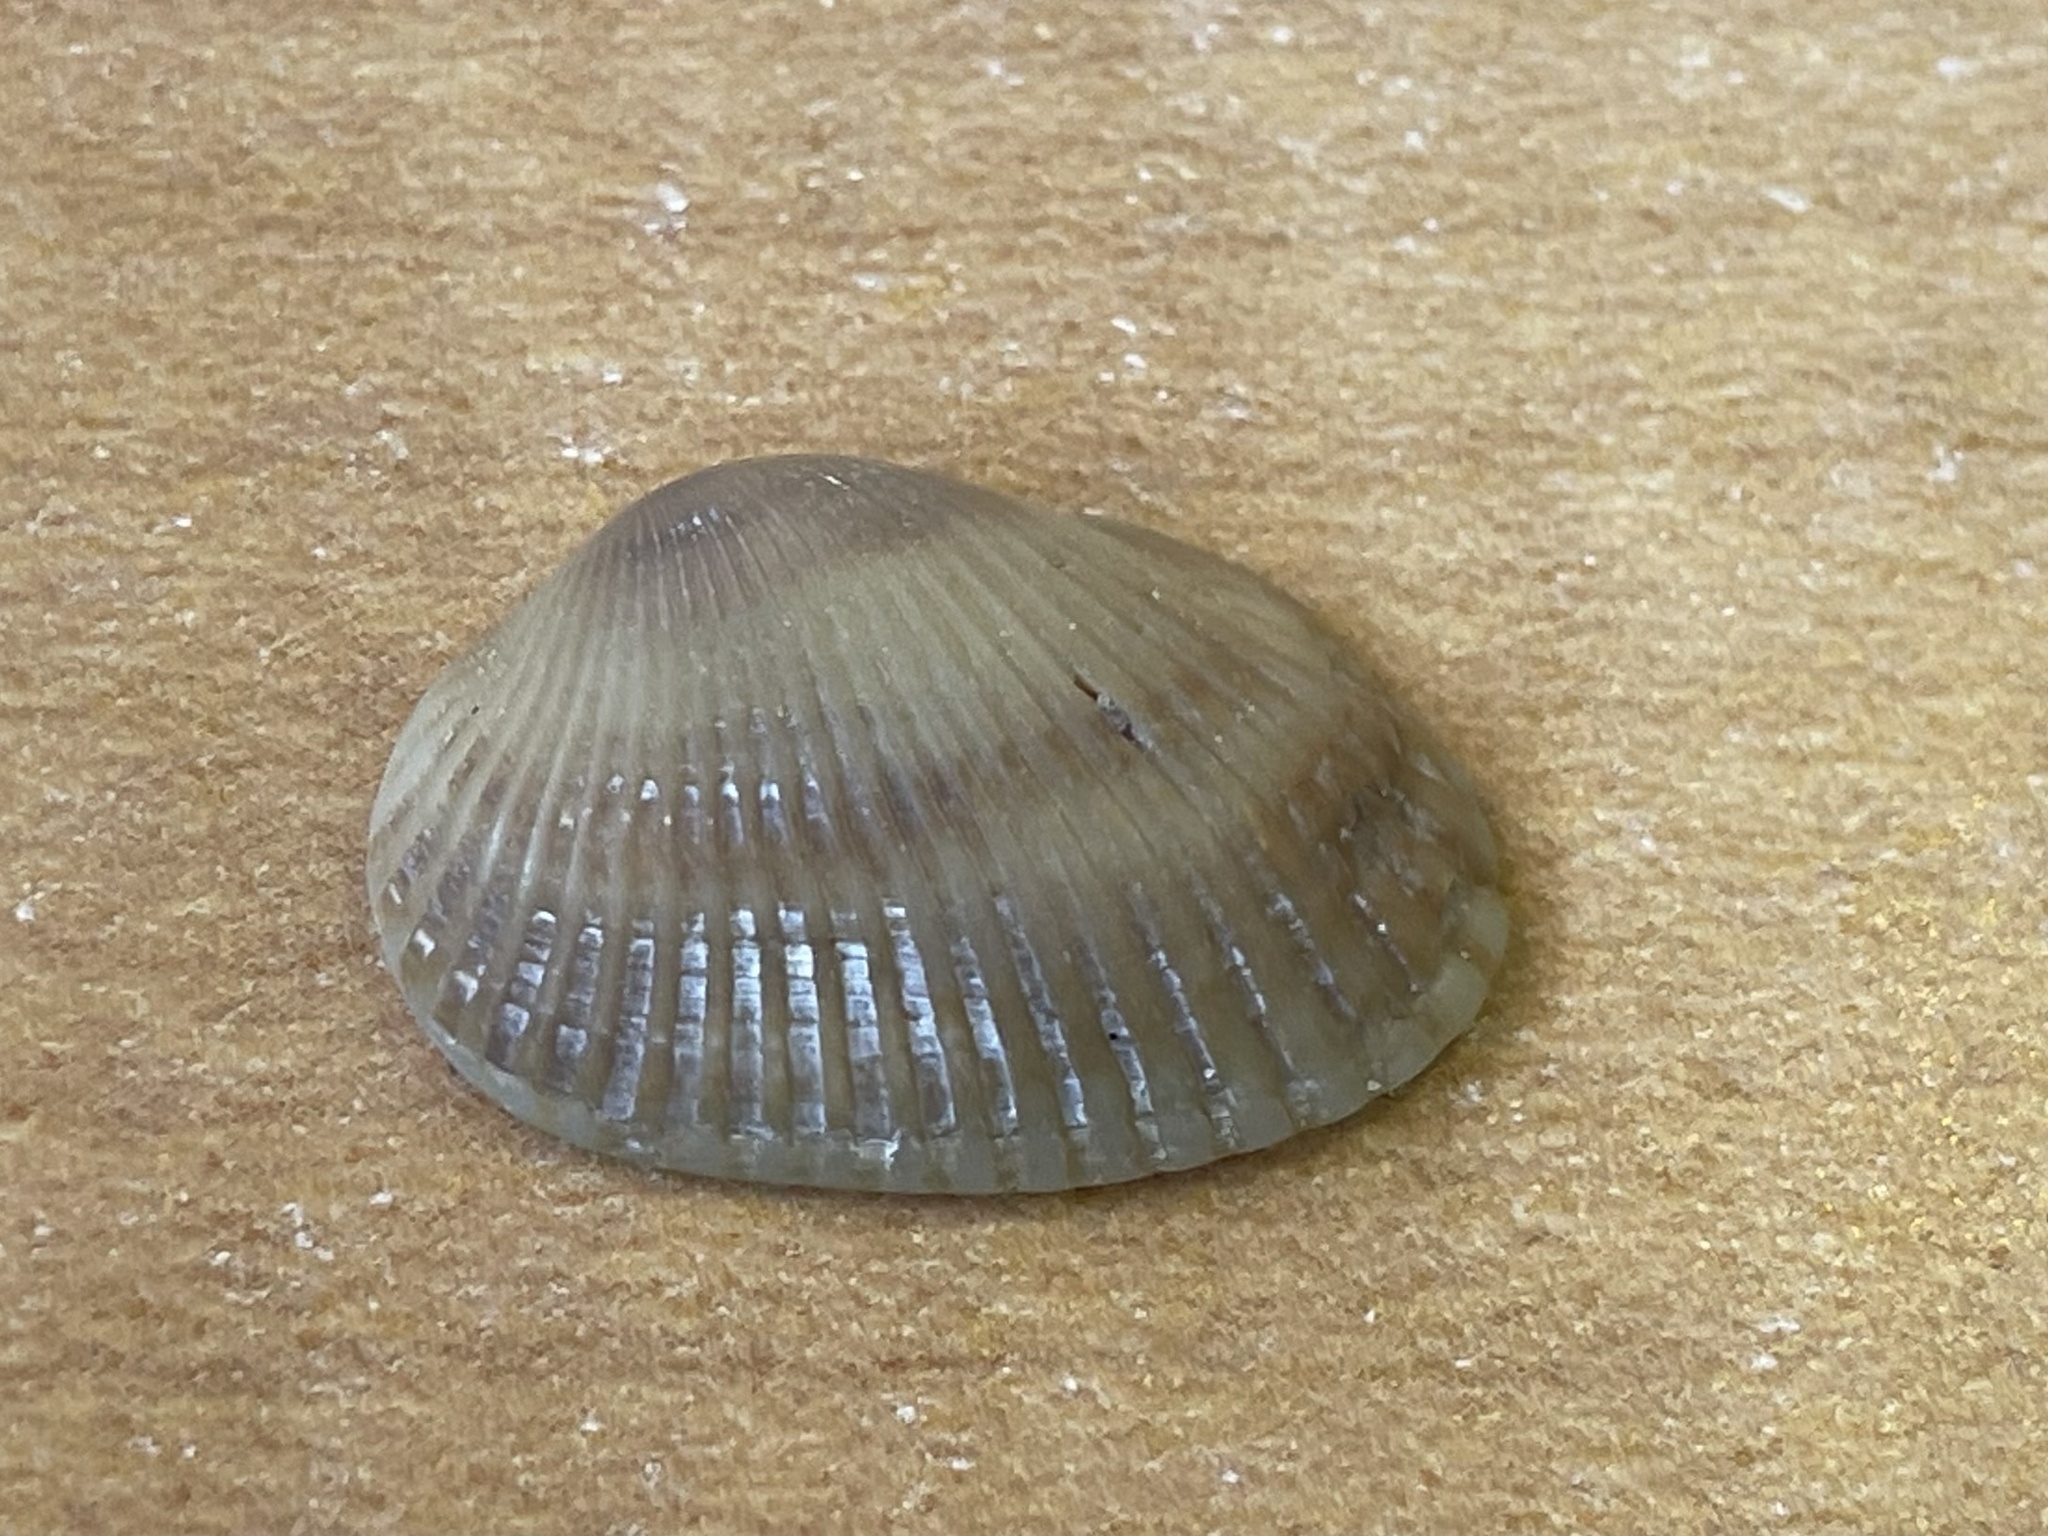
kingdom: Animalia
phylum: Mollusca
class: Bivalvia
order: Arcida
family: Arcidae
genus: Anadara
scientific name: Anadara transversa
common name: Transverse ark
